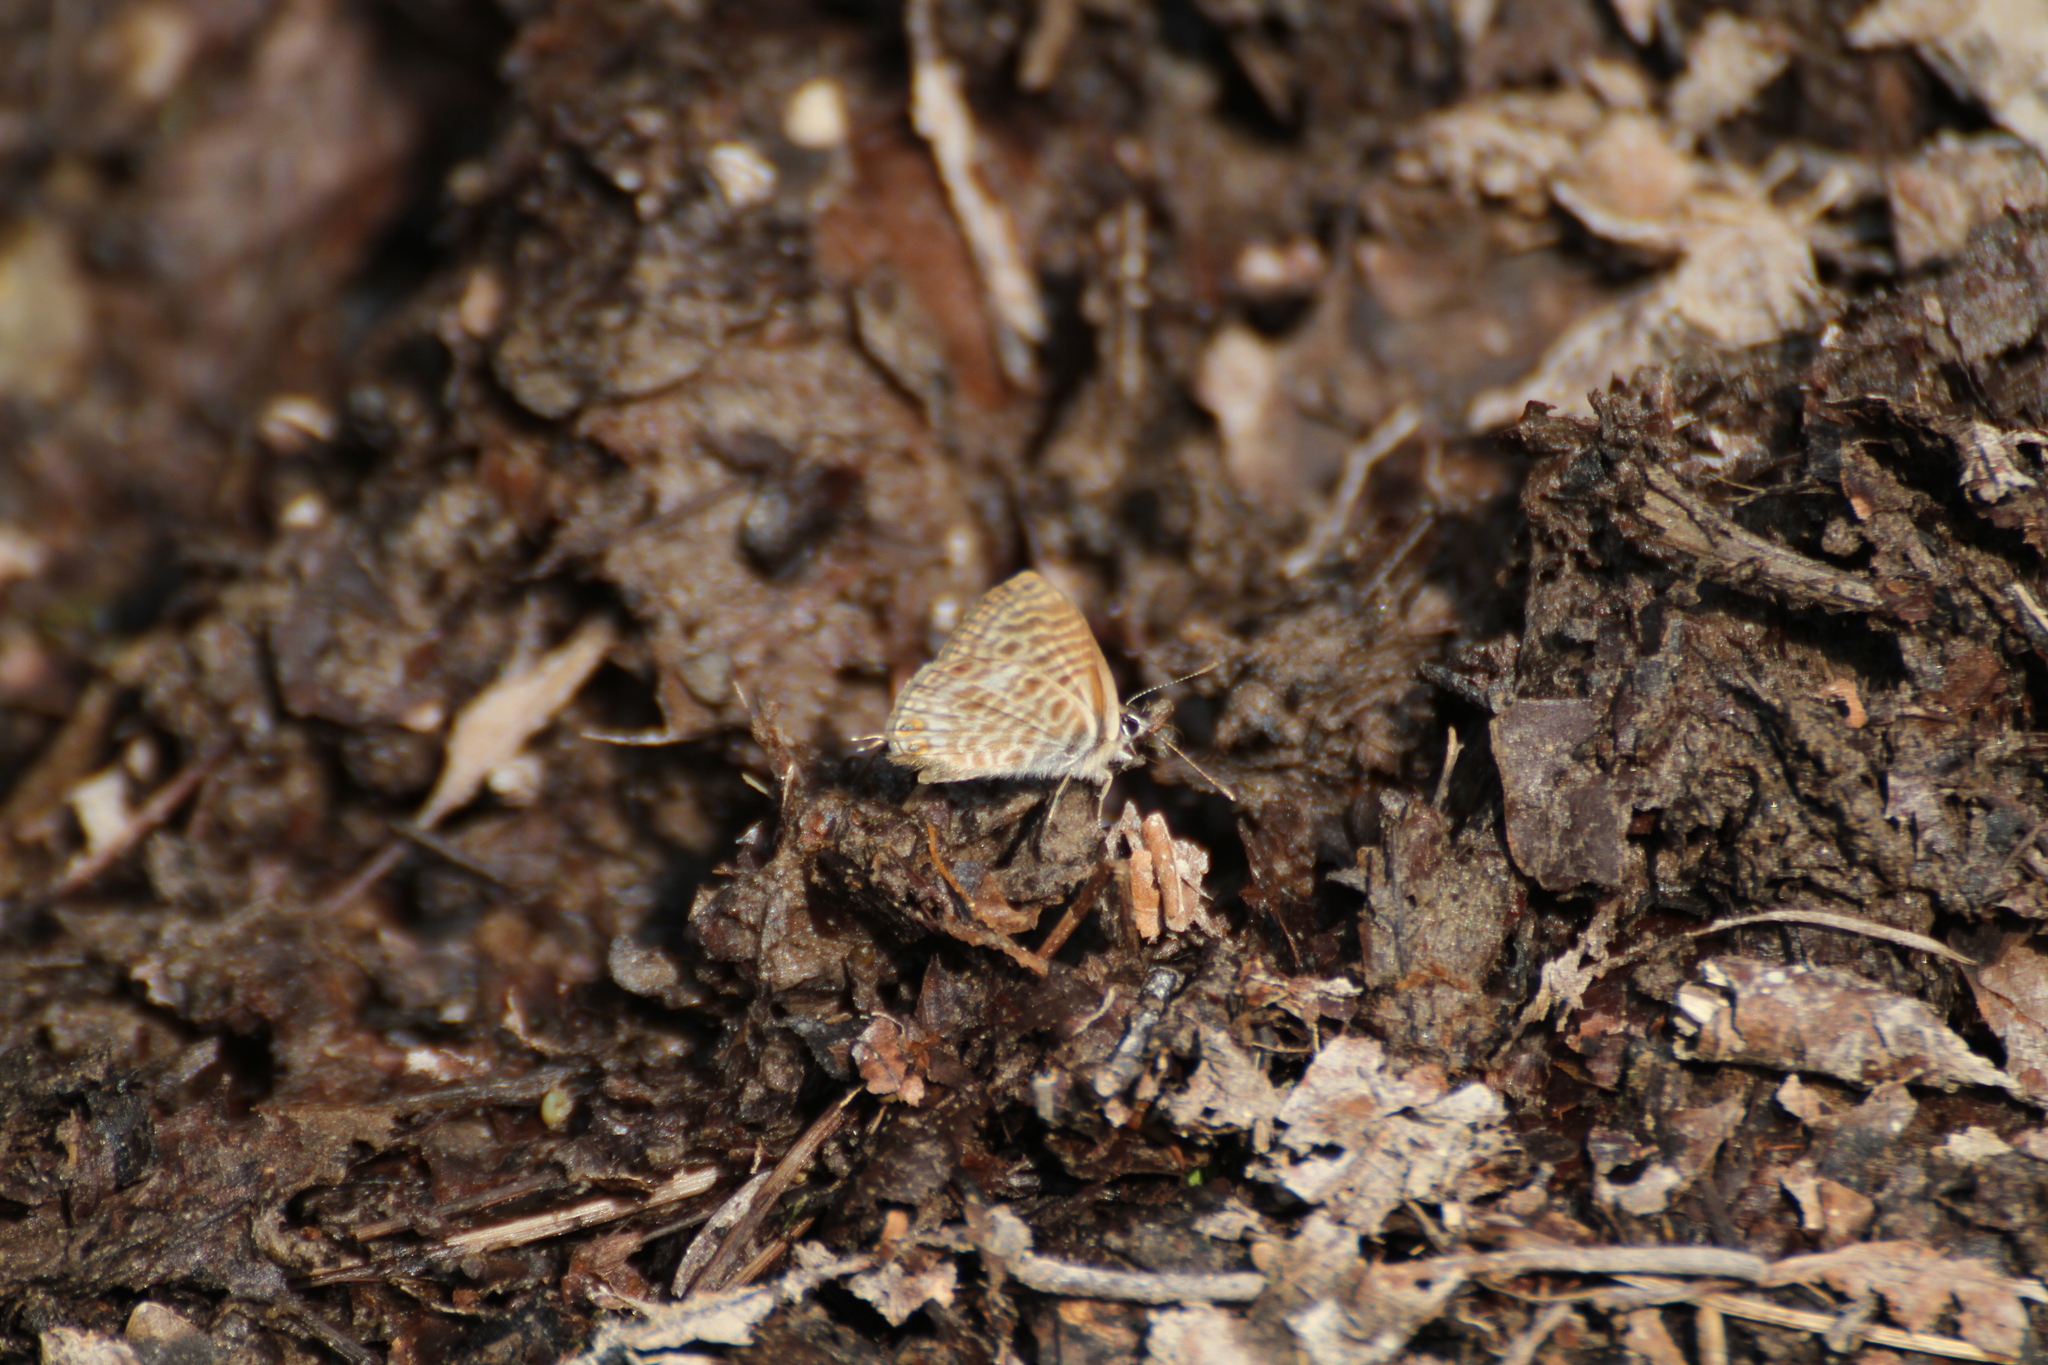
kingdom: Animalia
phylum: Arthropoda
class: Insecta
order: Lepidoptera
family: Lycaenidae
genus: Leptotes
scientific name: Leptotes pirithous
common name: Lang's short-tailed blue
